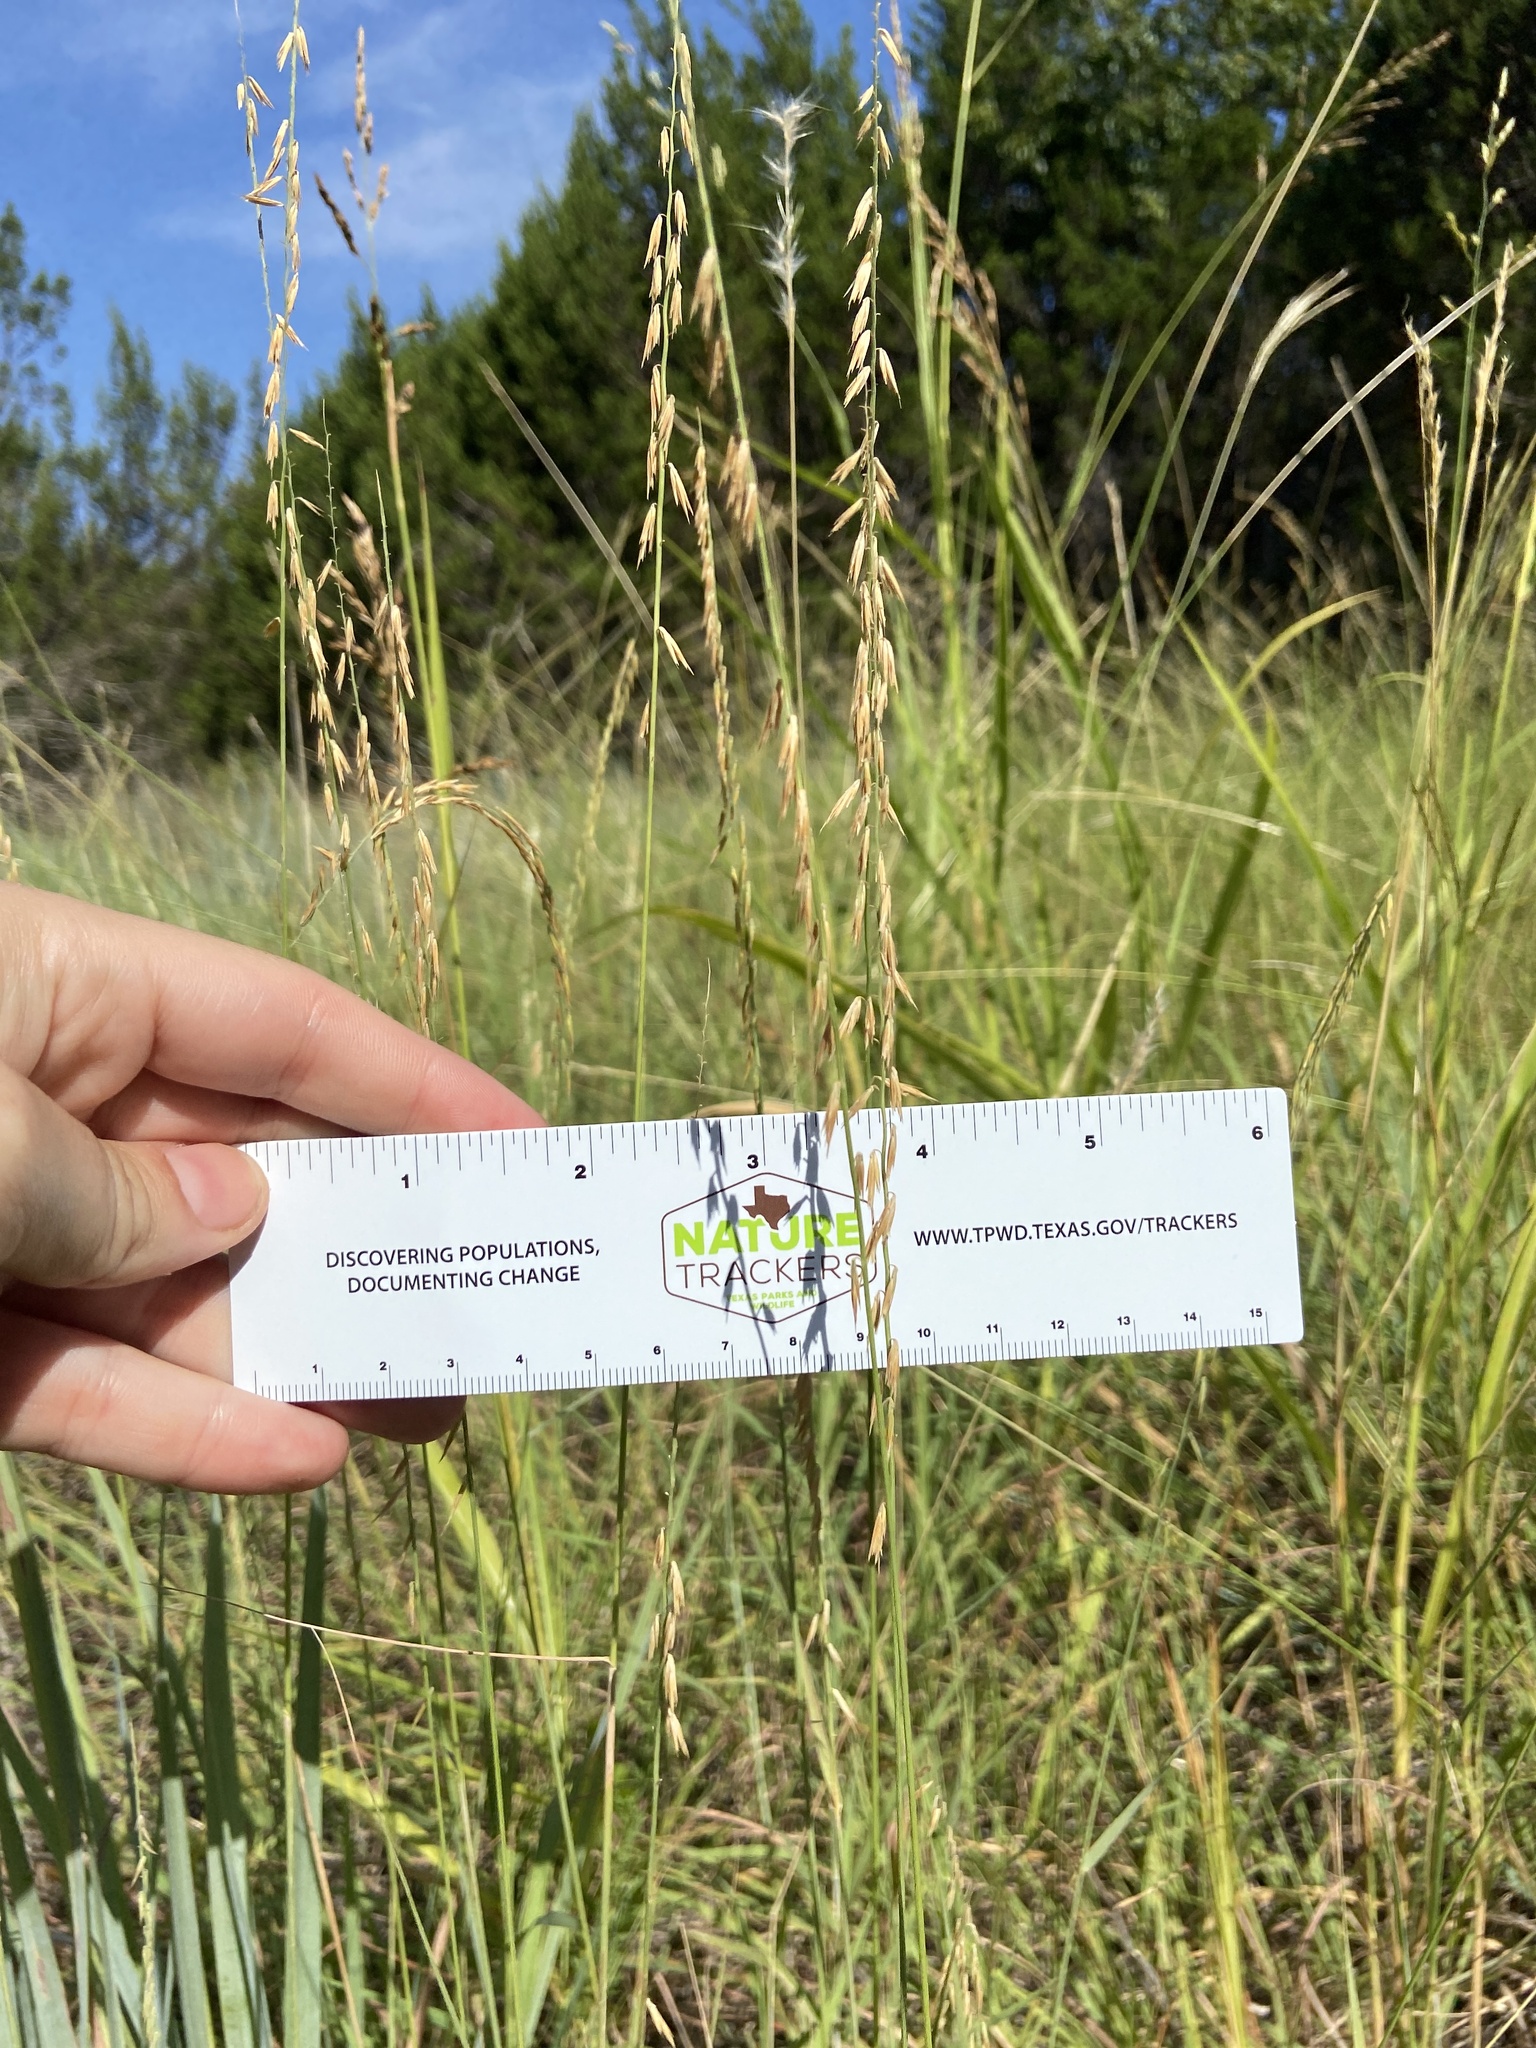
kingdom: Plantae
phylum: Tracheophyta
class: Liliopsida
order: Poales
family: Poaceae
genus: Bouteloua
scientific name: Bouteloua curtipendula
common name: Side-oats grama
